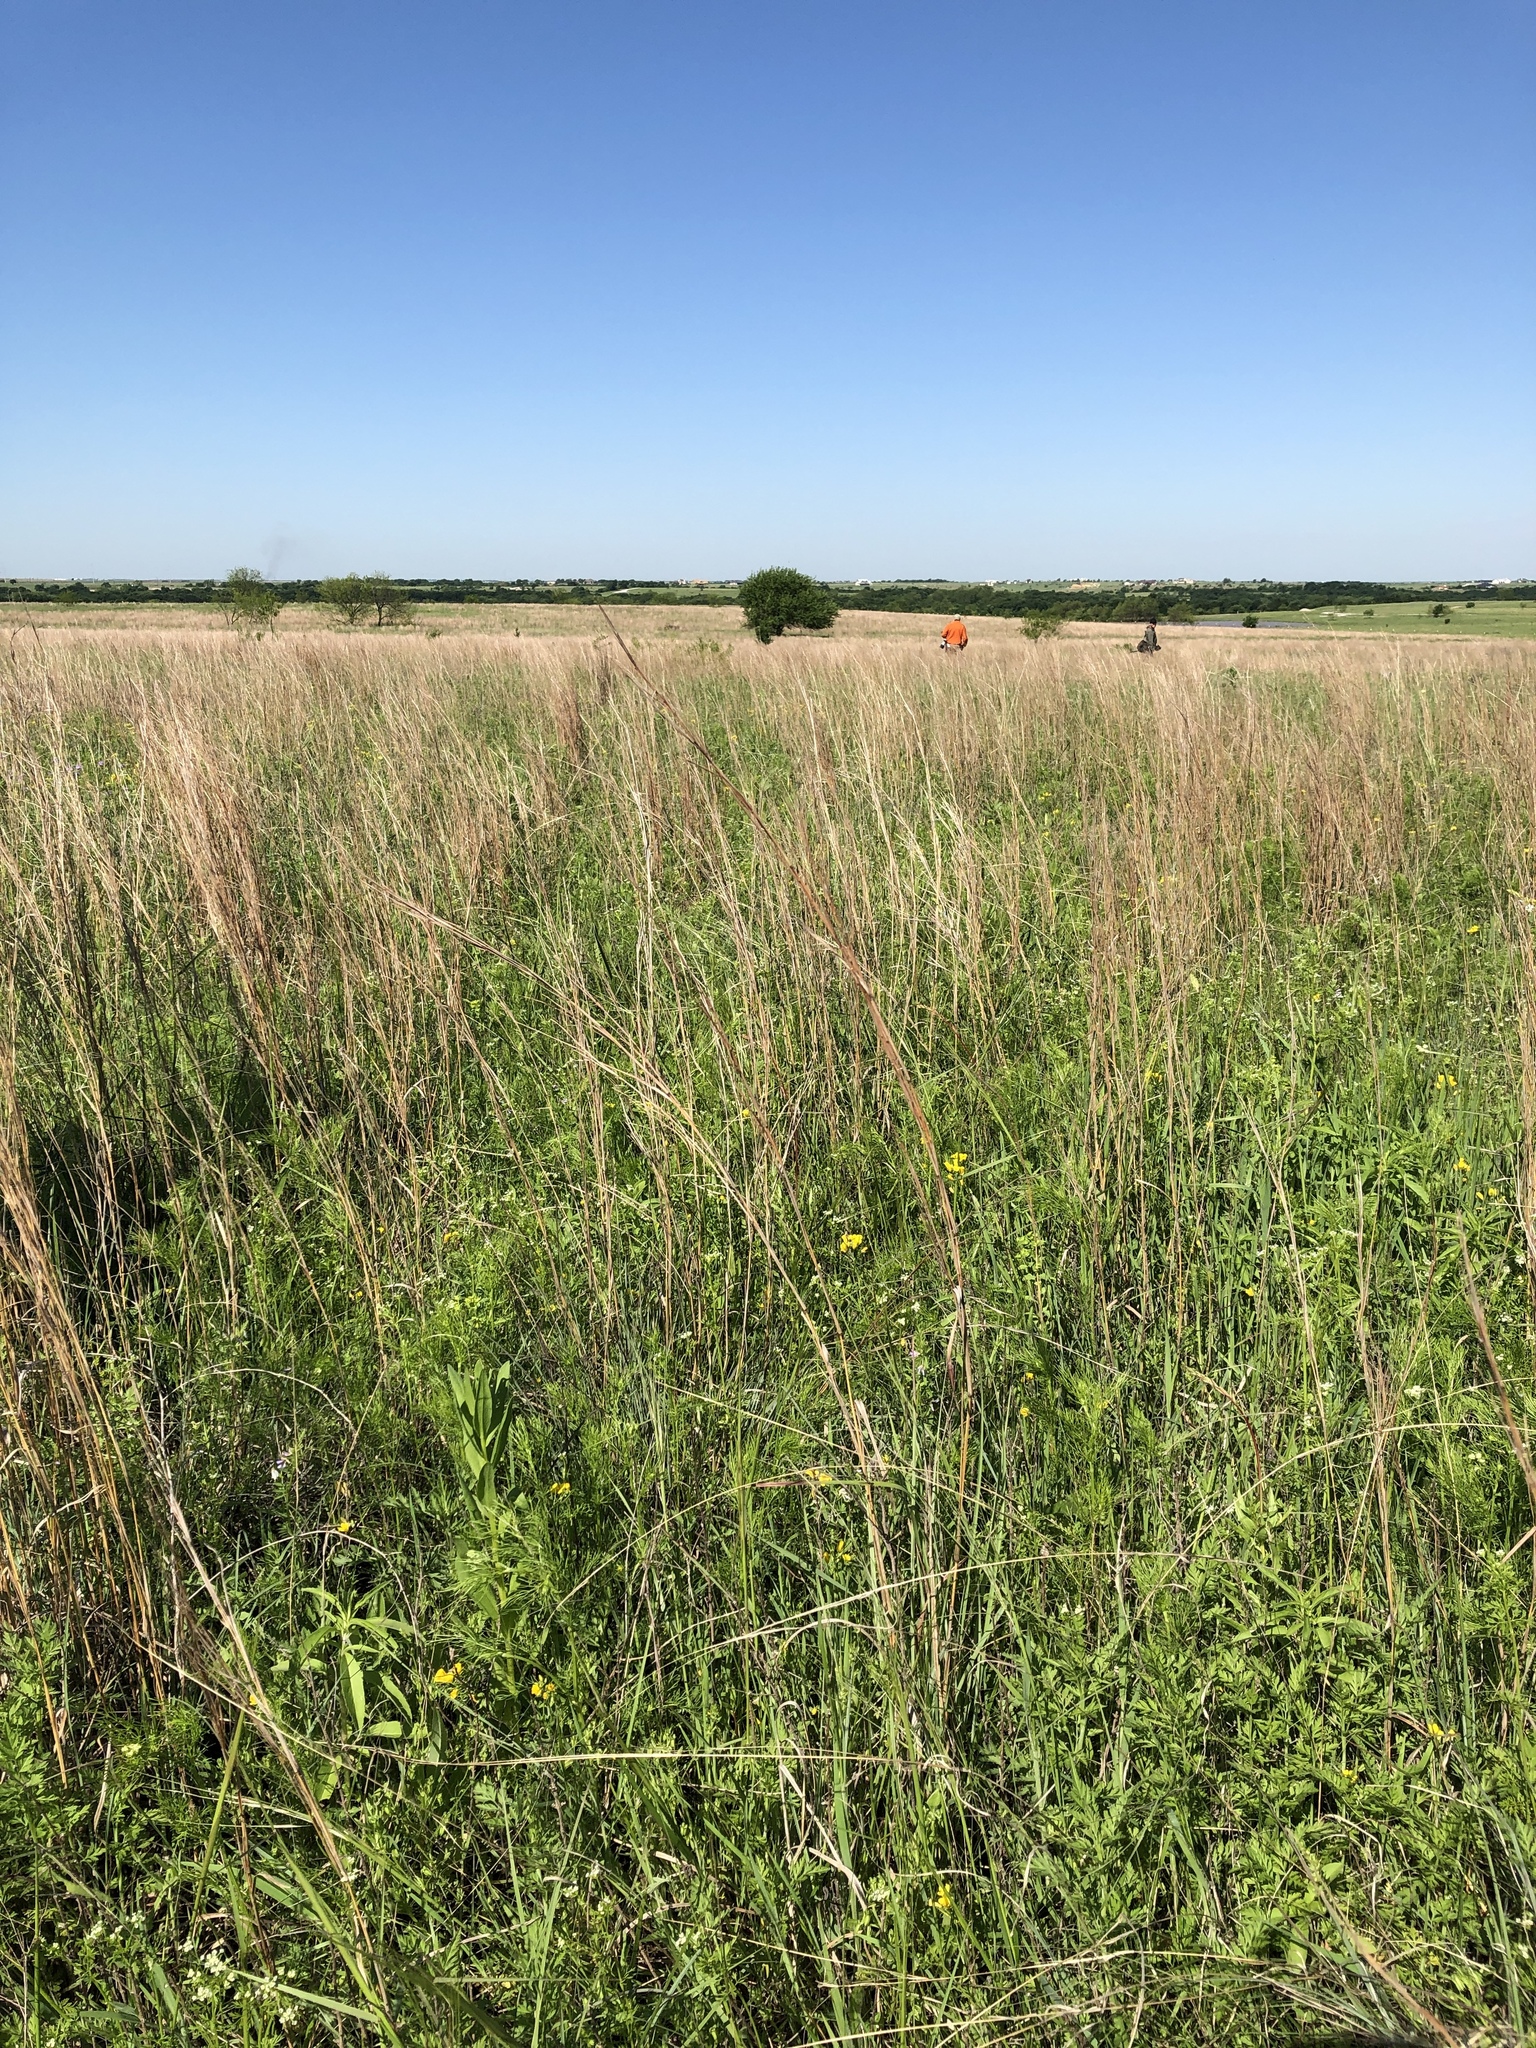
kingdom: Plantae
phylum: Tracheophyta
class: Liliopsida
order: Poales
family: Poaceae
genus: Schizachyrium
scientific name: Schizachyrium scoparium
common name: Little bluestem
